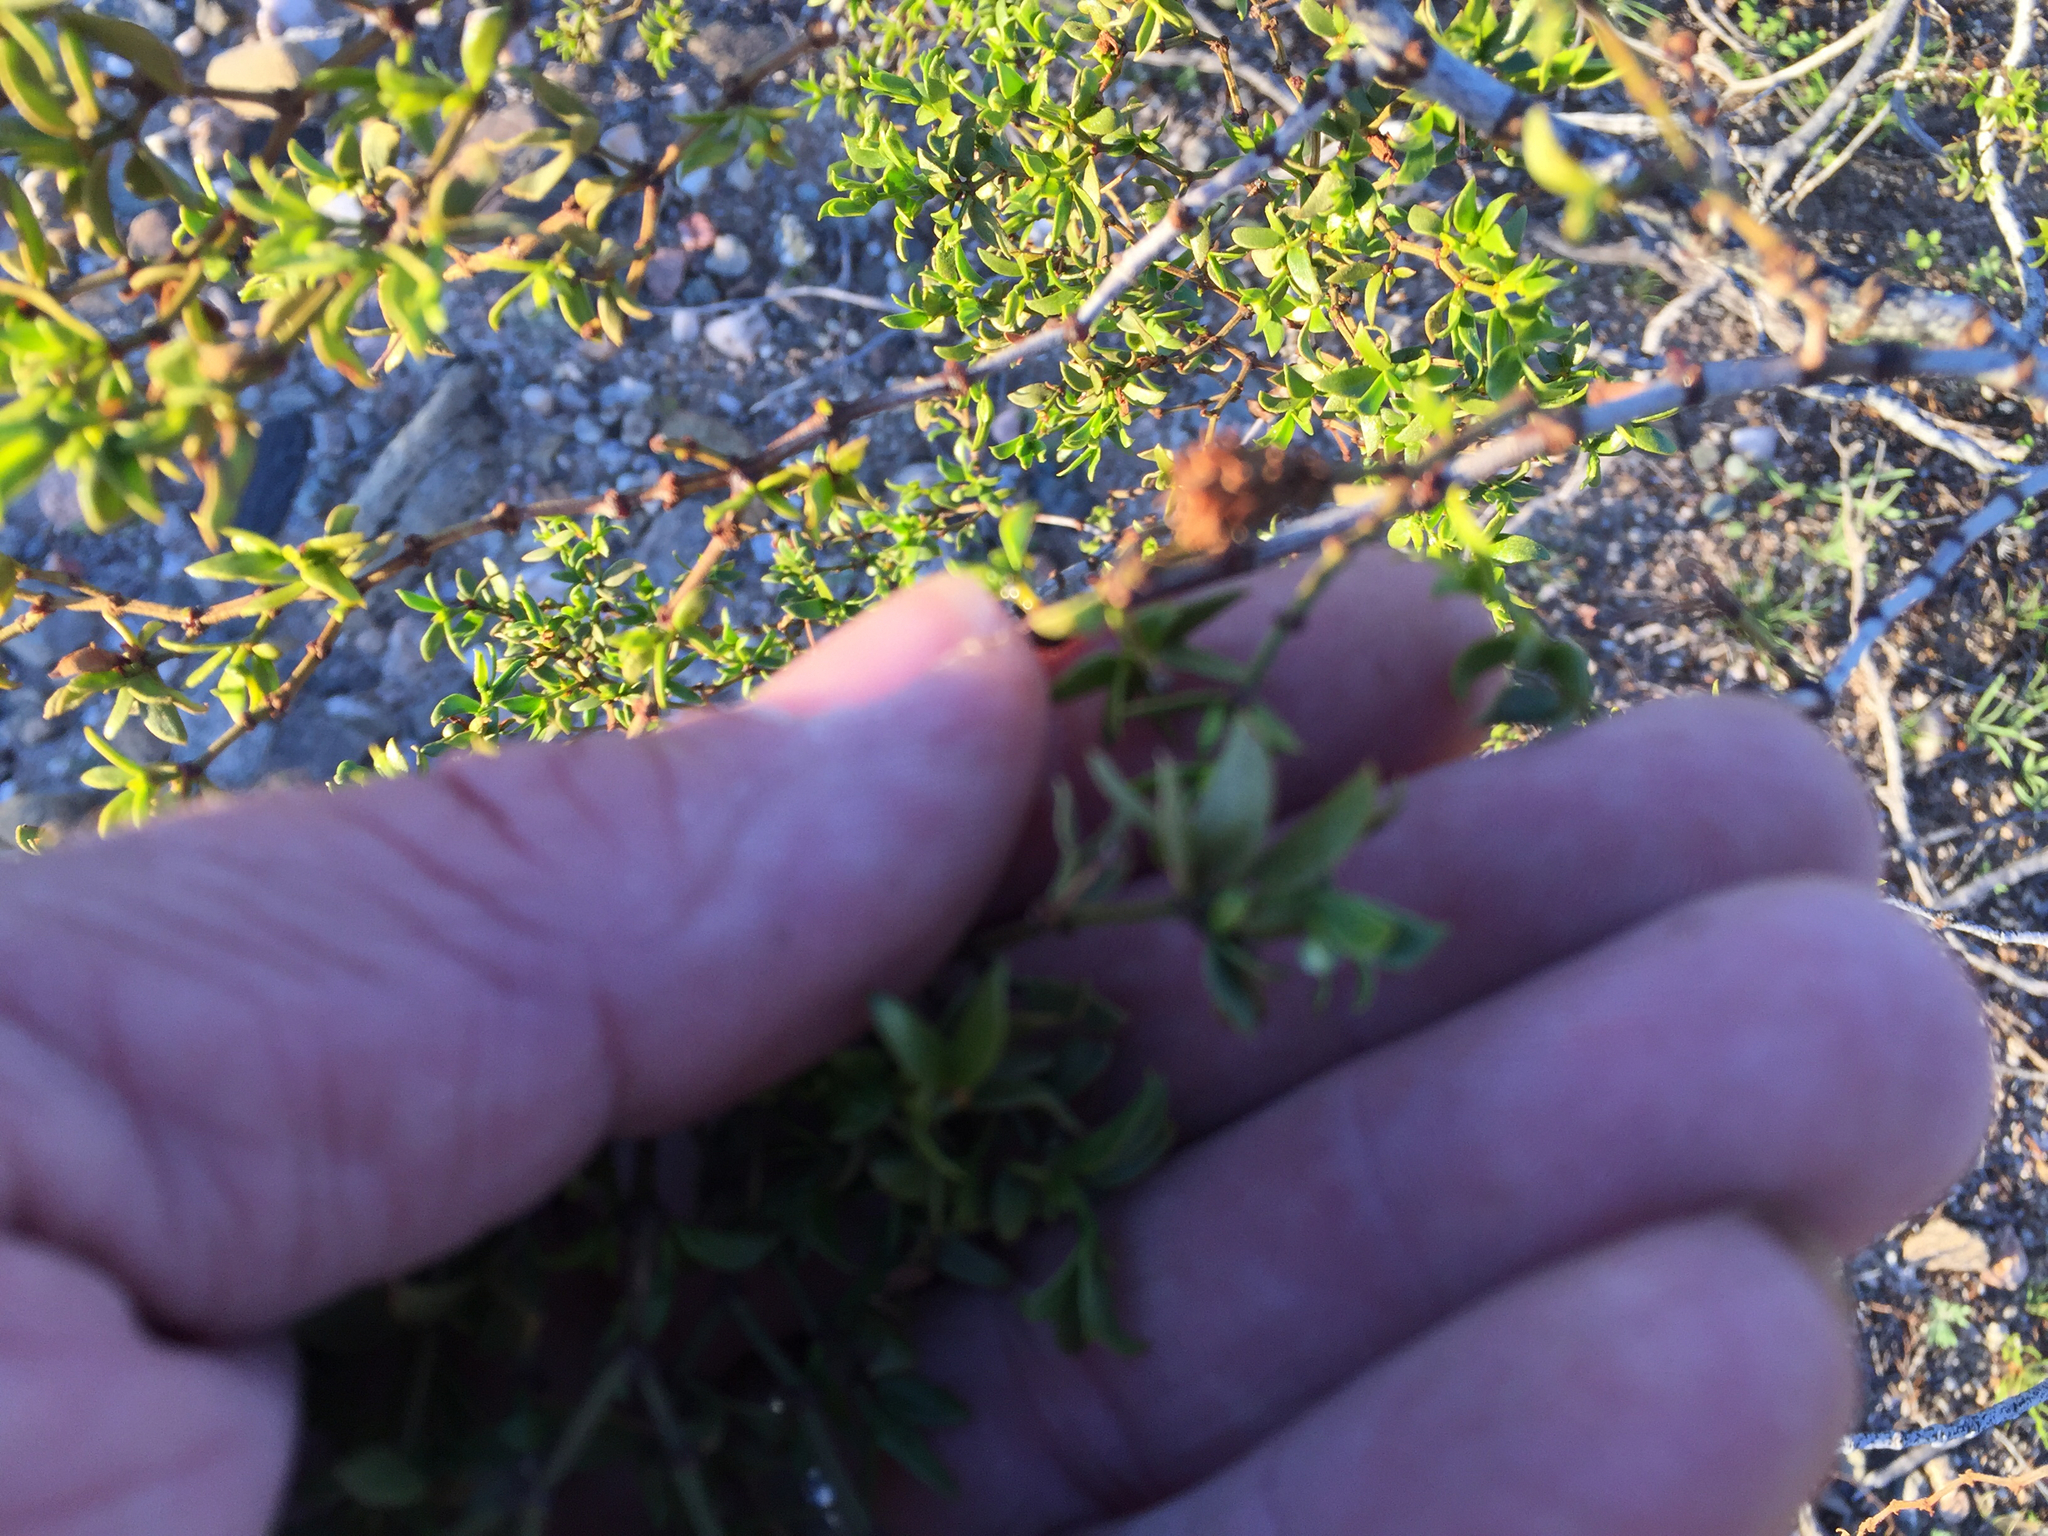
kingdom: Animalia
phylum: Arthropoda
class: Insecta
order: Diptera
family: Cecidomyiidae
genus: Asphondylia
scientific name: Asphondylia rosetta
